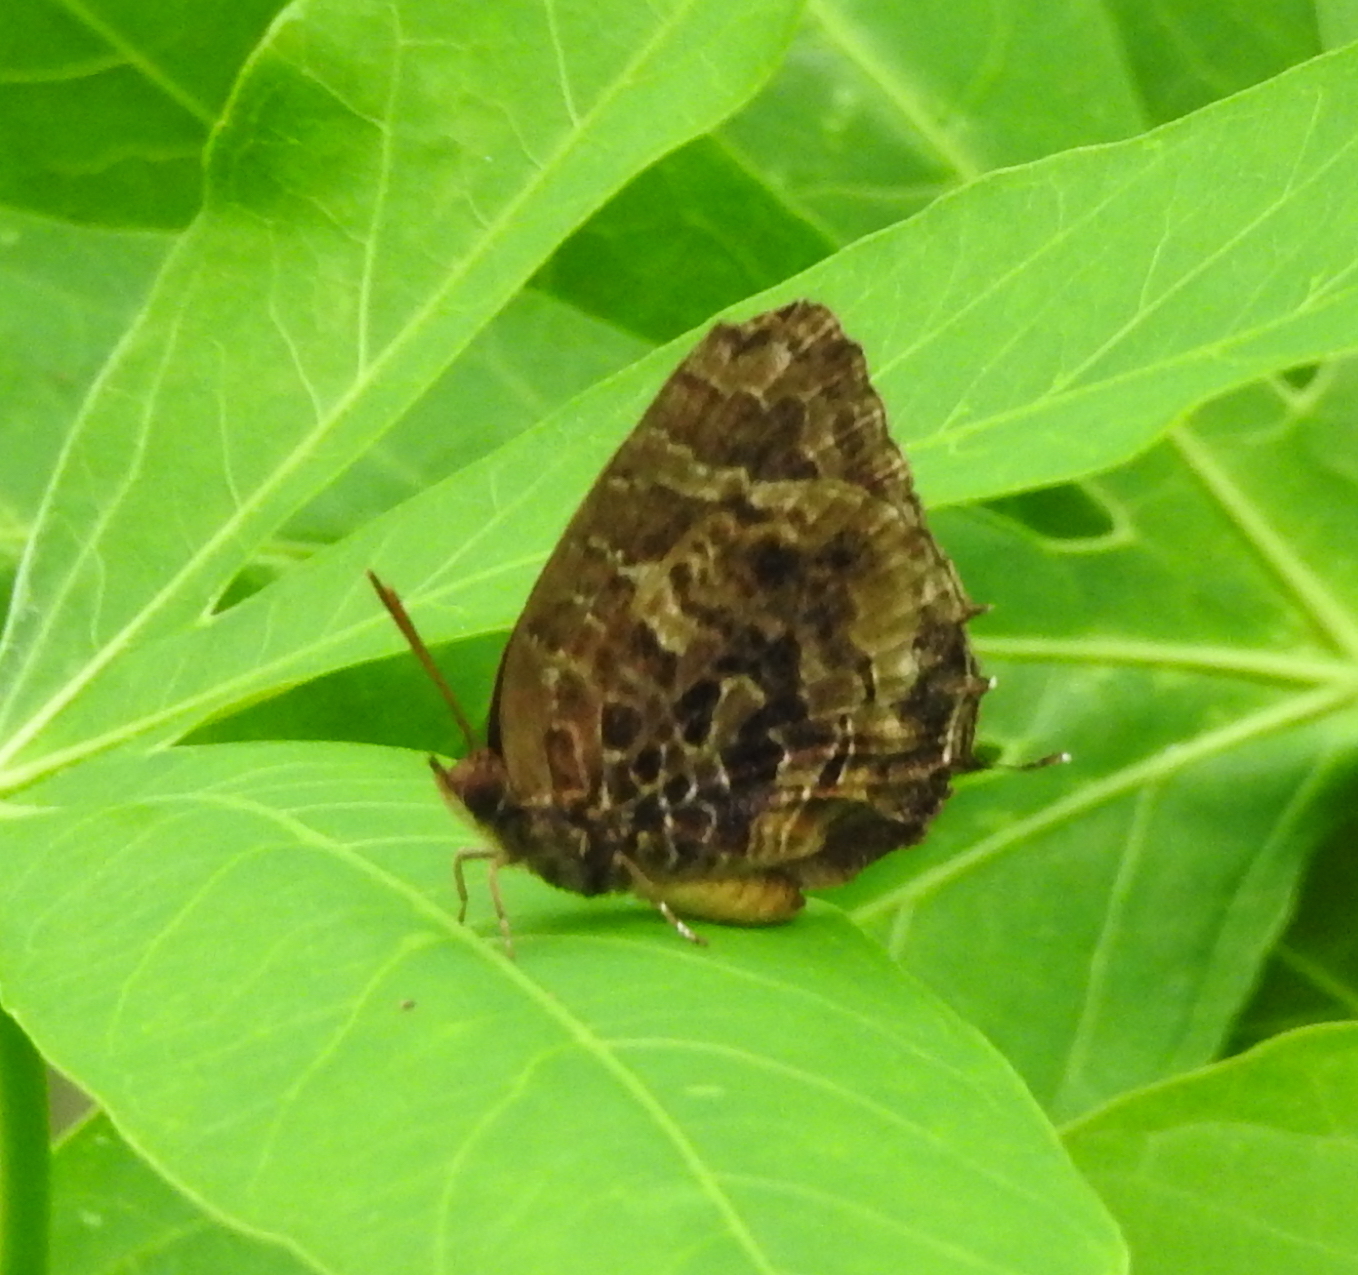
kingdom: Animalia
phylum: Arthropoda
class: Insecta
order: Lepidoptera
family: Lycaenidae
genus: Arhopala
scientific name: Arhopala abseus
